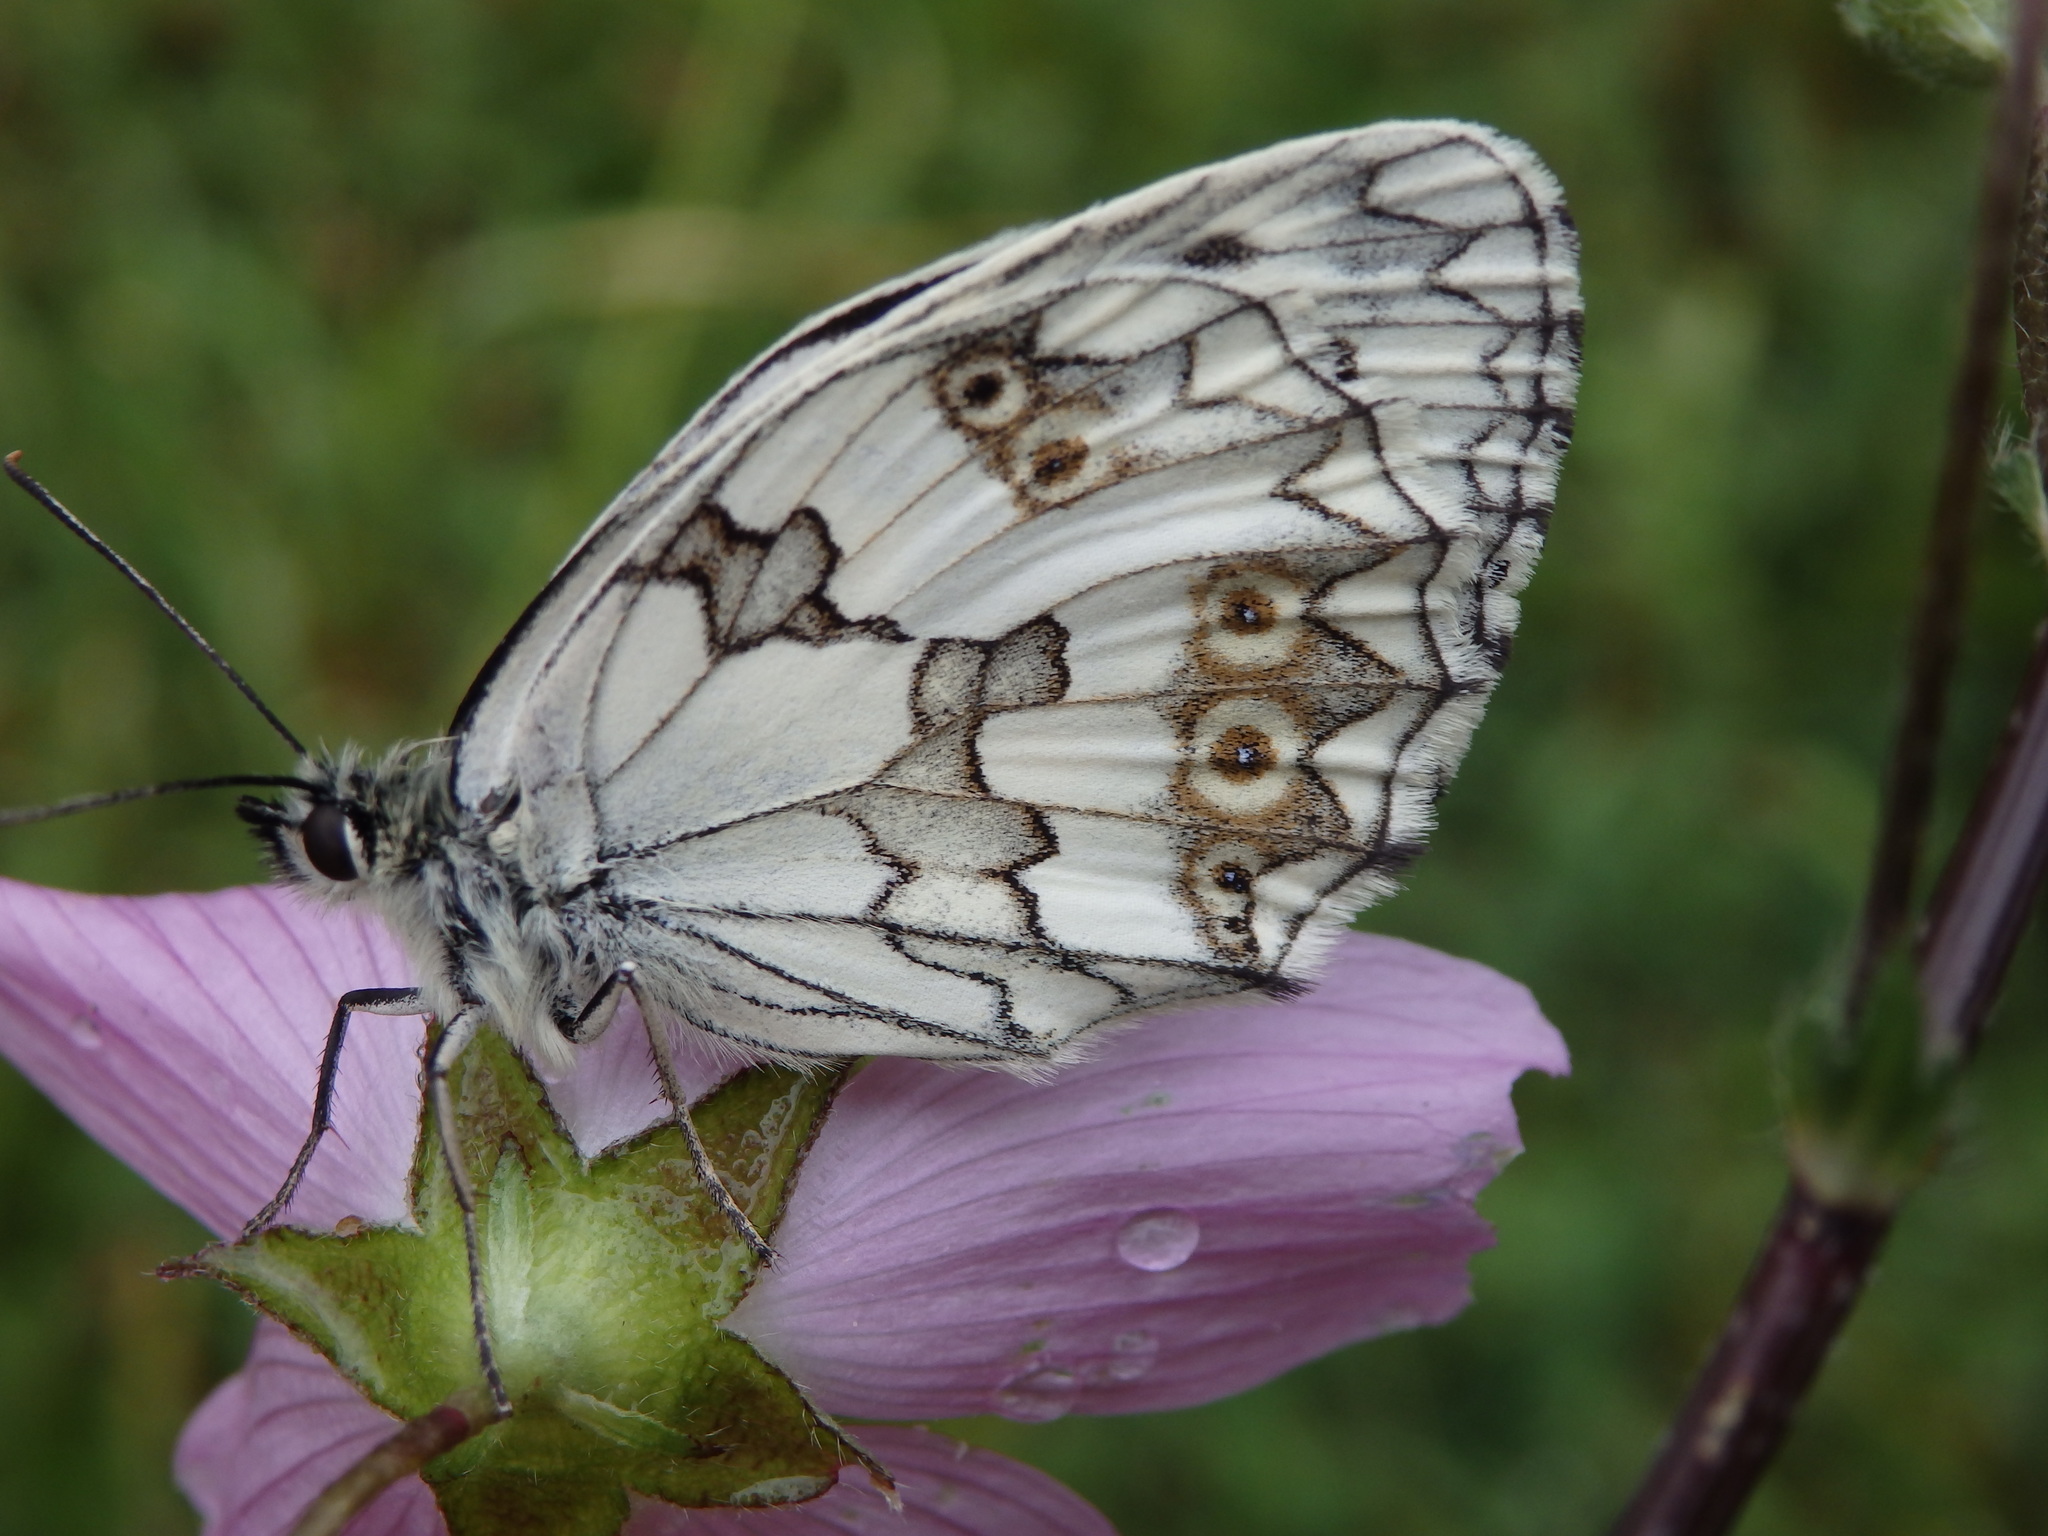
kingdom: Animalia
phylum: Arthropoda
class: Insecta
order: Lepidoptera
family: Nymphalidae
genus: Melanargia
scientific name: Melanargia lachesis
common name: Iberian marbled white
